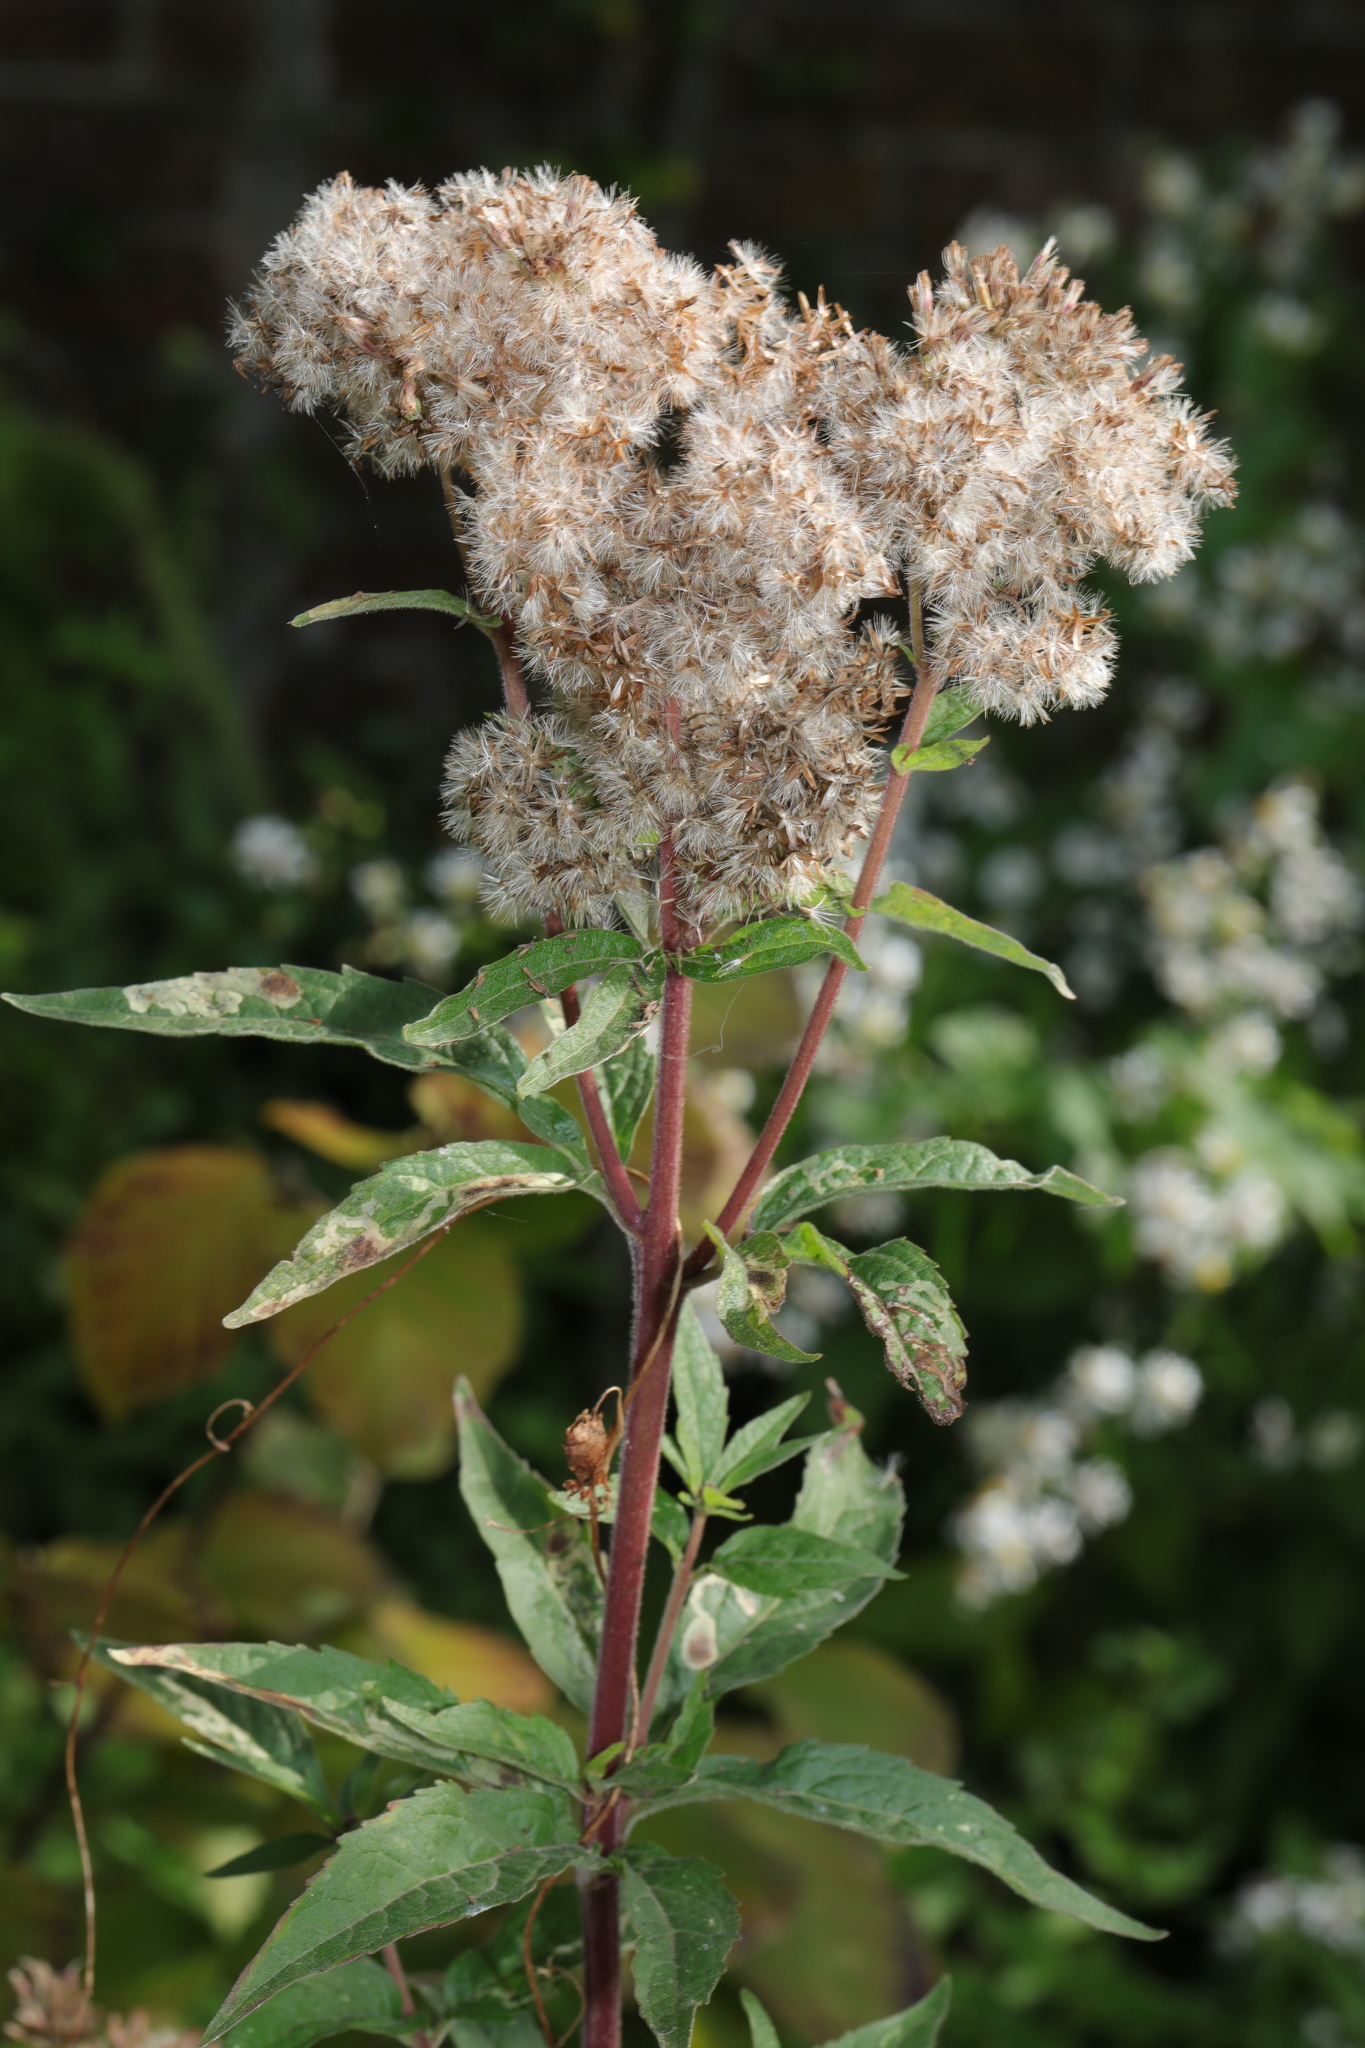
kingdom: Plantae
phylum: Tracheophyta
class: Magnoliopsida
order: Asterales
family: Asteraceae
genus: Eupatorium
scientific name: Eupatorium cannabinum
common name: Hemp-agrimony
